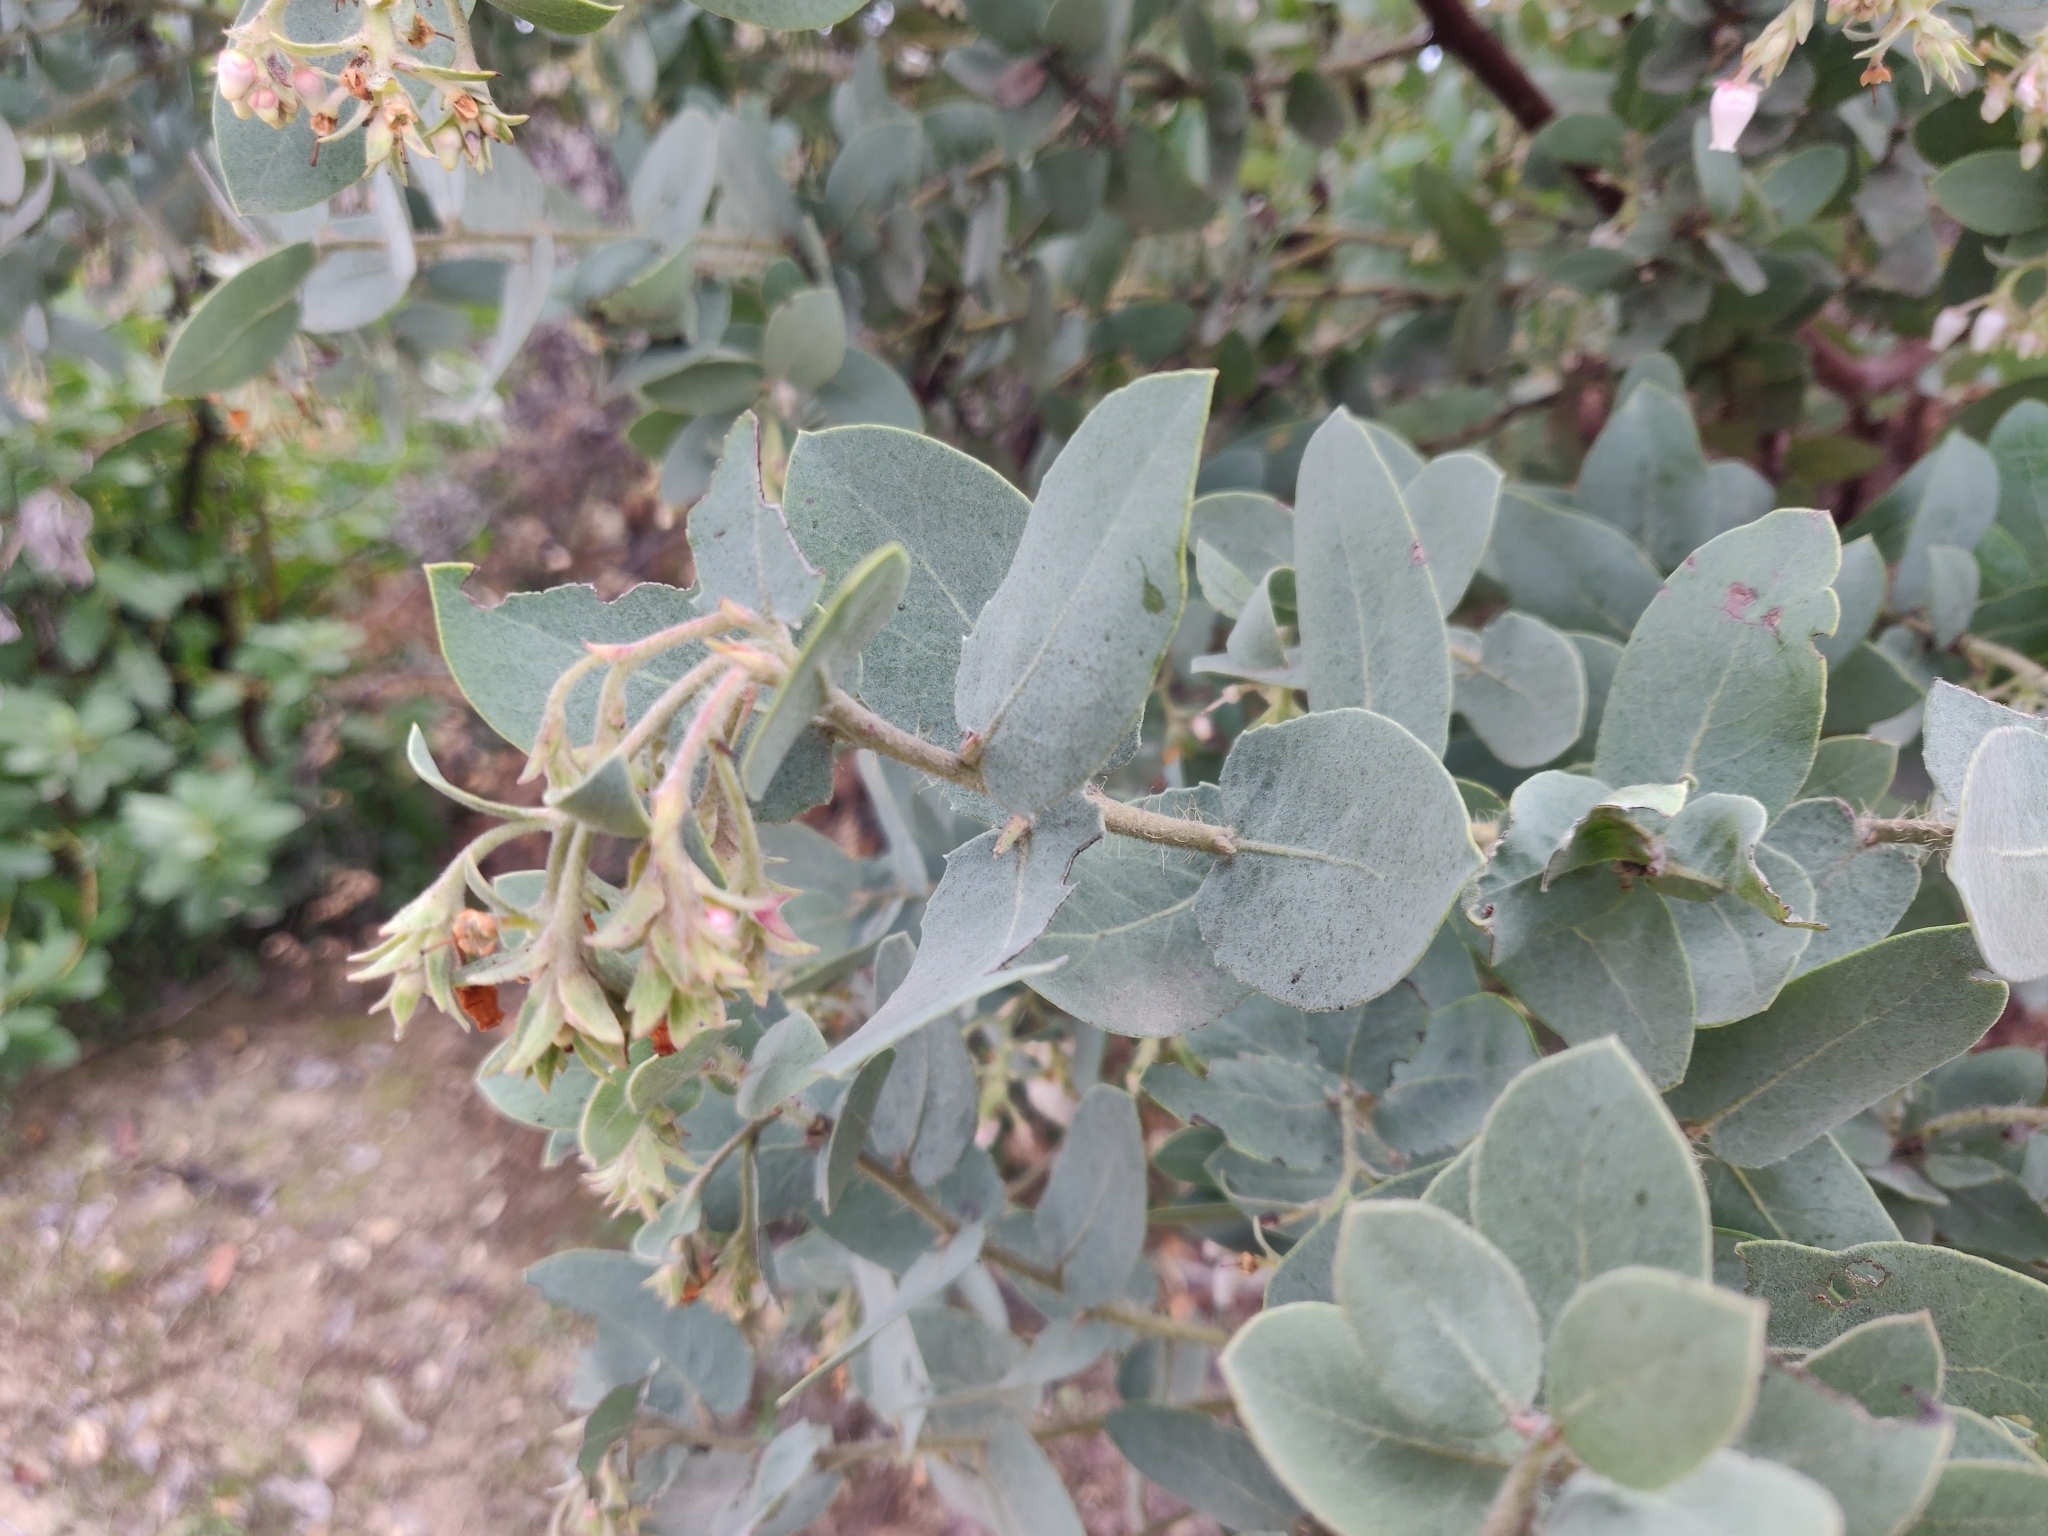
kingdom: Plantae
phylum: Tracheophyta
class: Magnoliopsida
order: Ericales
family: Ericaceae
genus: Arctostaphylos
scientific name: Arctostaphylos glutinosa
